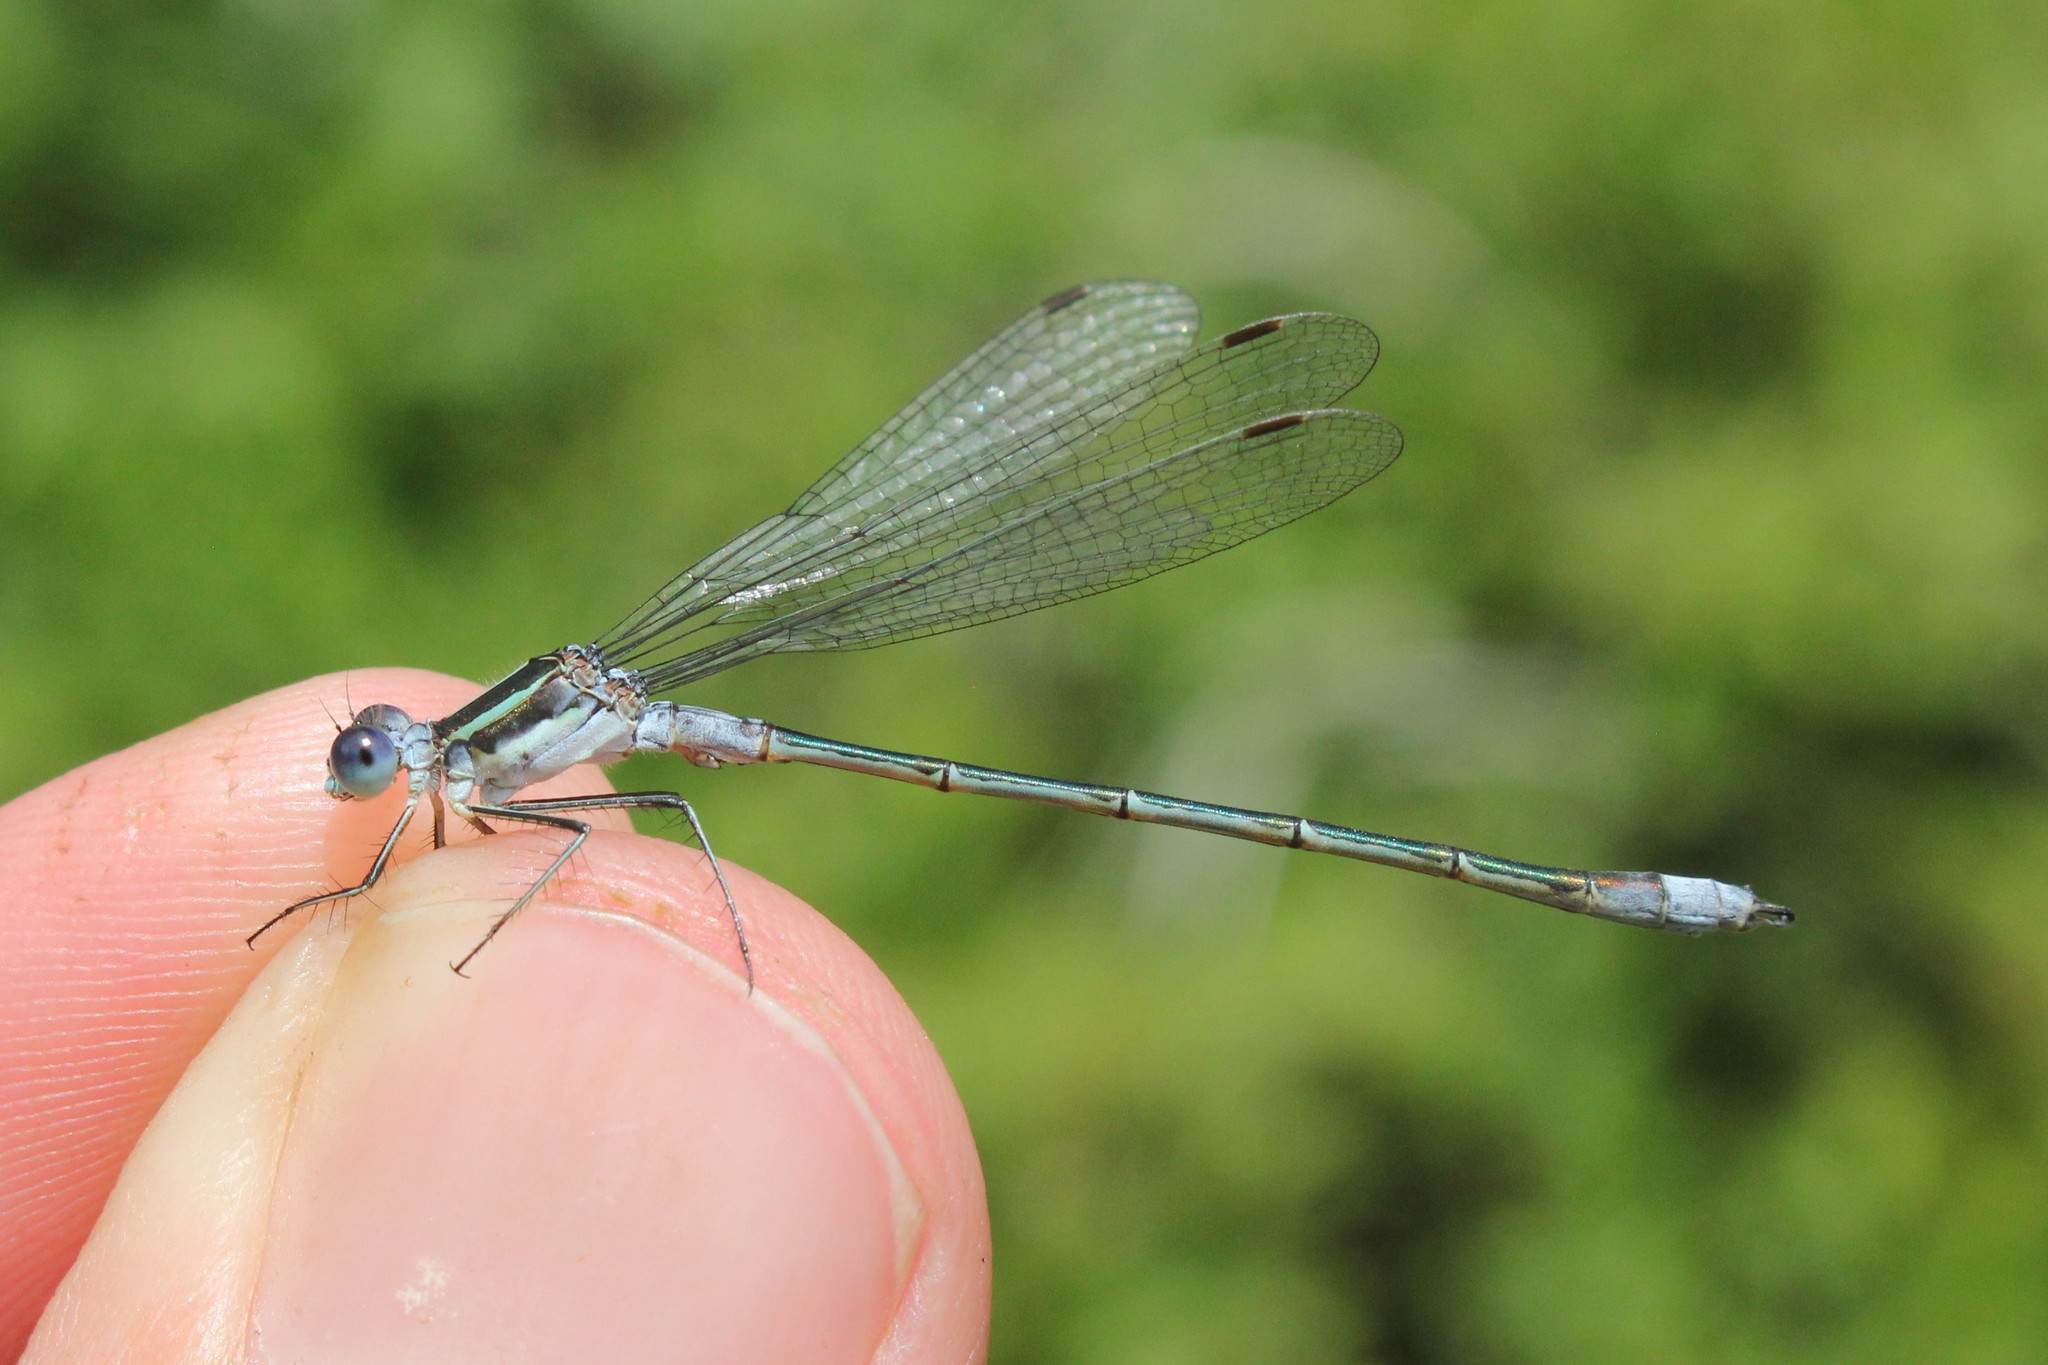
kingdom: Animalia
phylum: Arthropoda
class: Insecta
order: Odonata
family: Lestidae
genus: Lestes
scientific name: Lestes disjunctus
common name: Northern spreadwing
